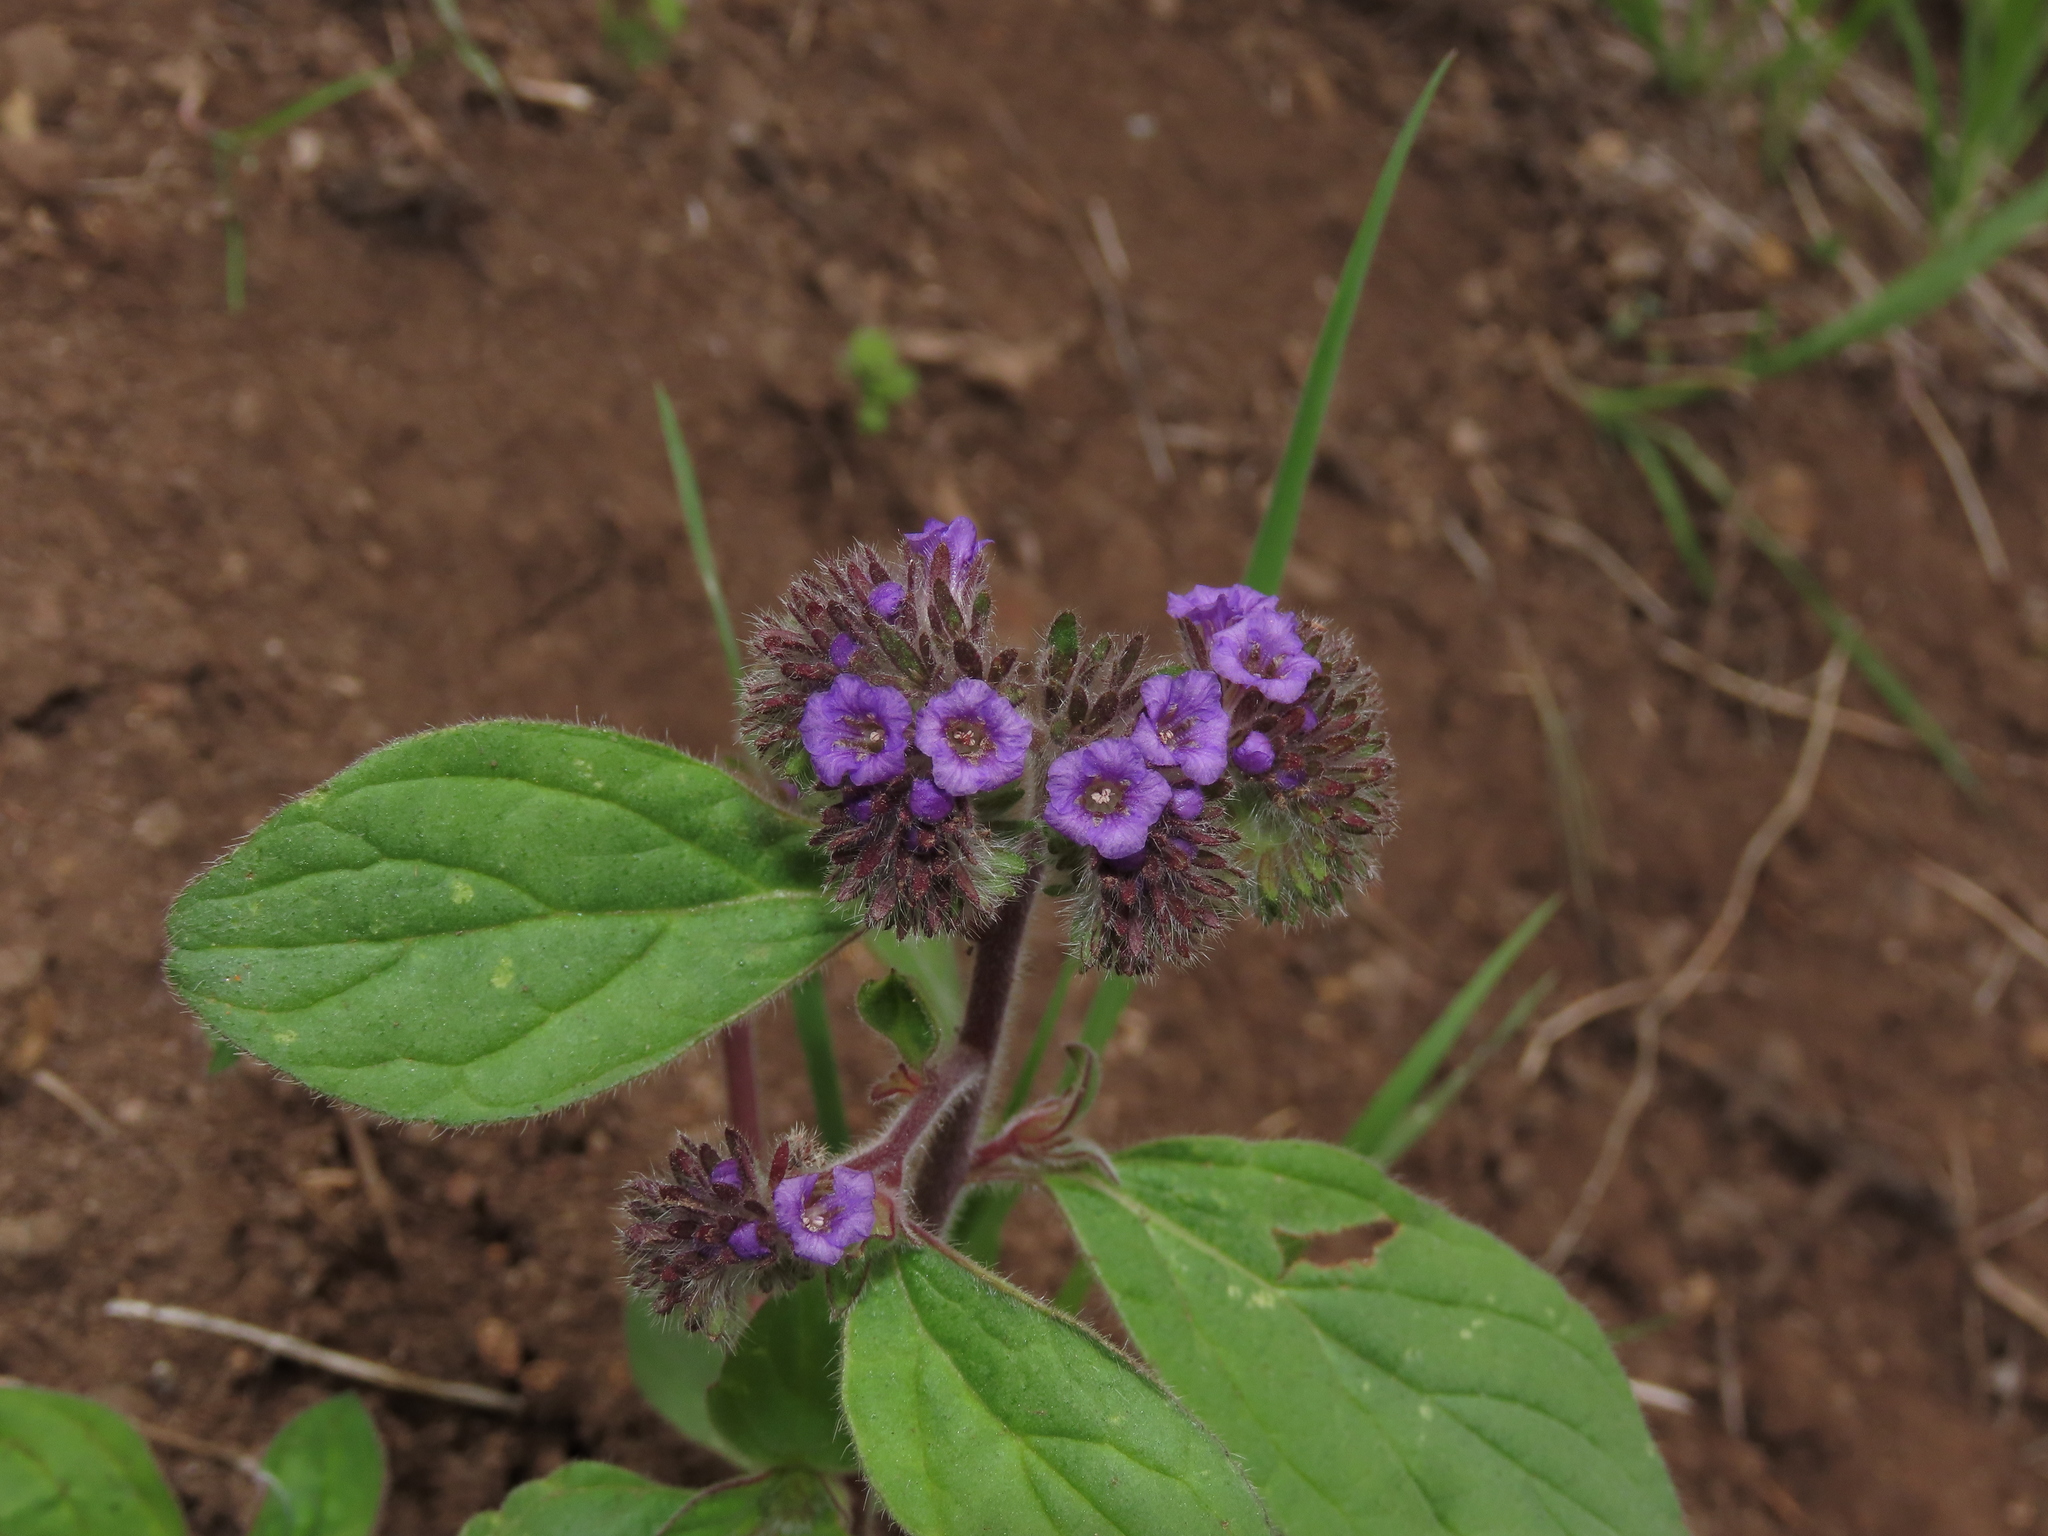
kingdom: Plantae
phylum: Tracheophyta
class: Magnoliopsida
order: Boraginales
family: Hydrophyllaceae
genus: Phacelia
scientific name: Phacelia brachyantha
